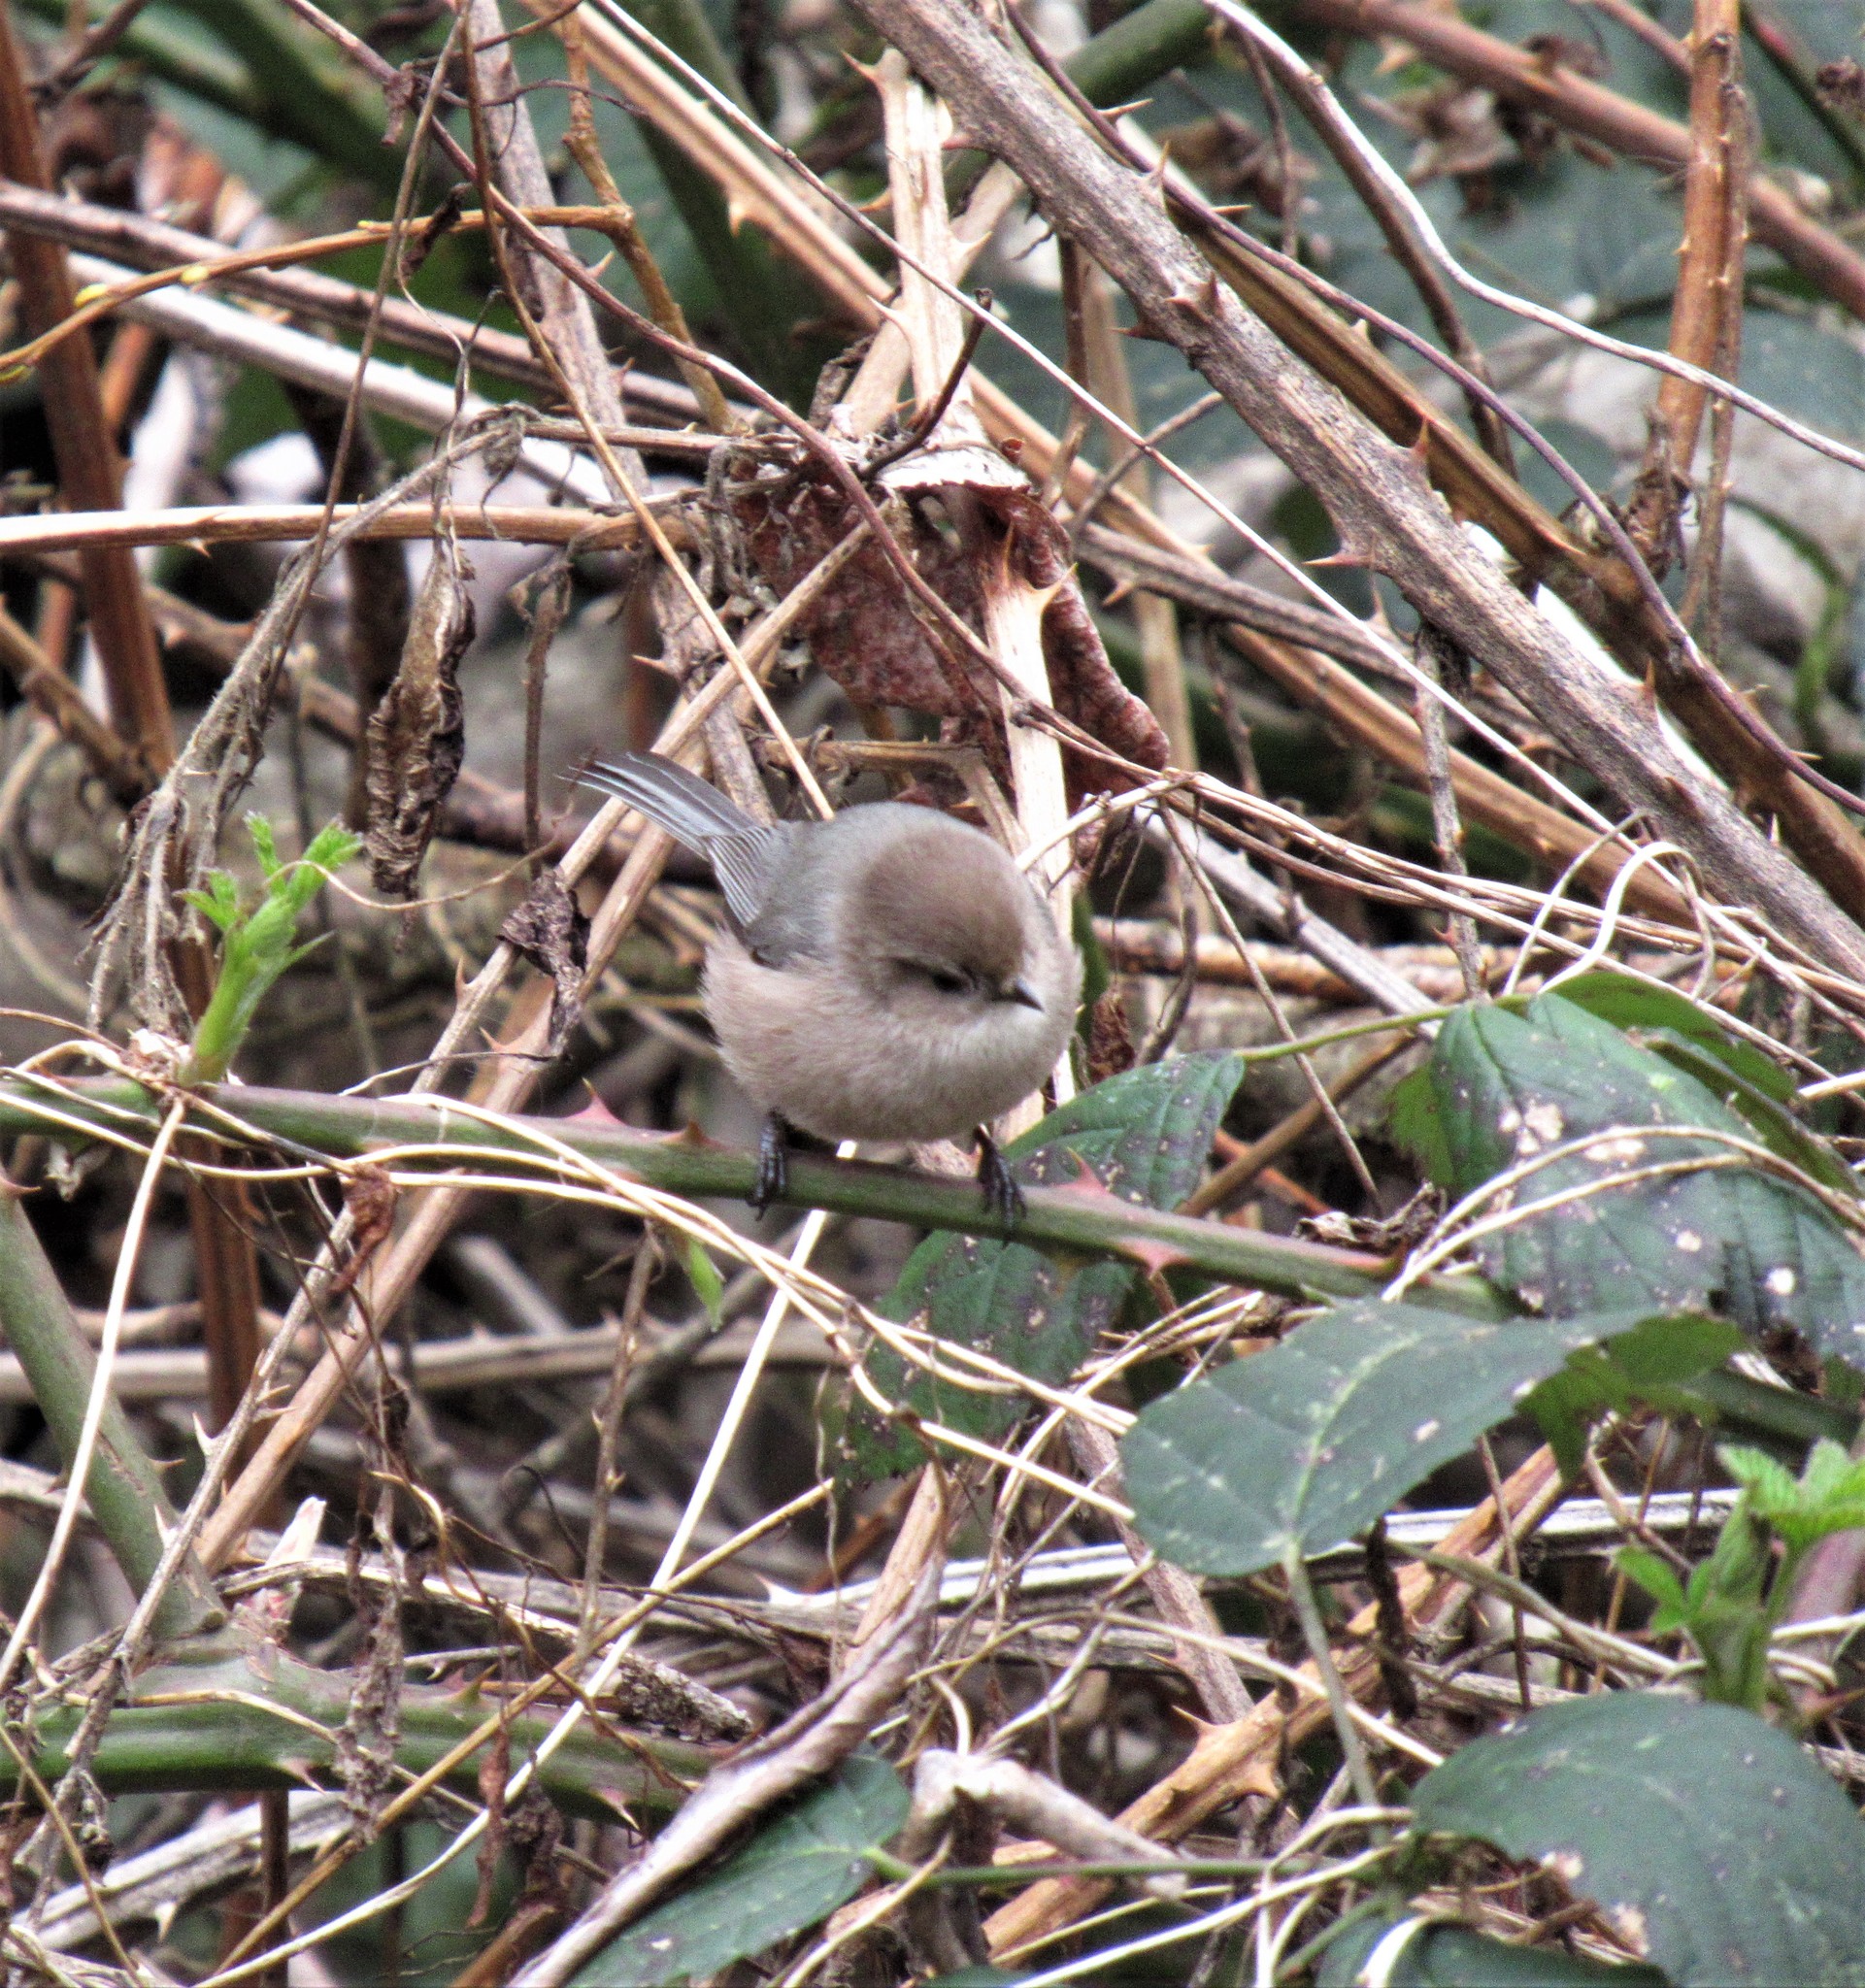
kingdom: Animalia
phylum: Chordata
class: Aves
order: Passeriformes
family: Aegithalidae
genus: Psaltriparus
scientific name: Psaltriparus minimus
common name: American bushtit
